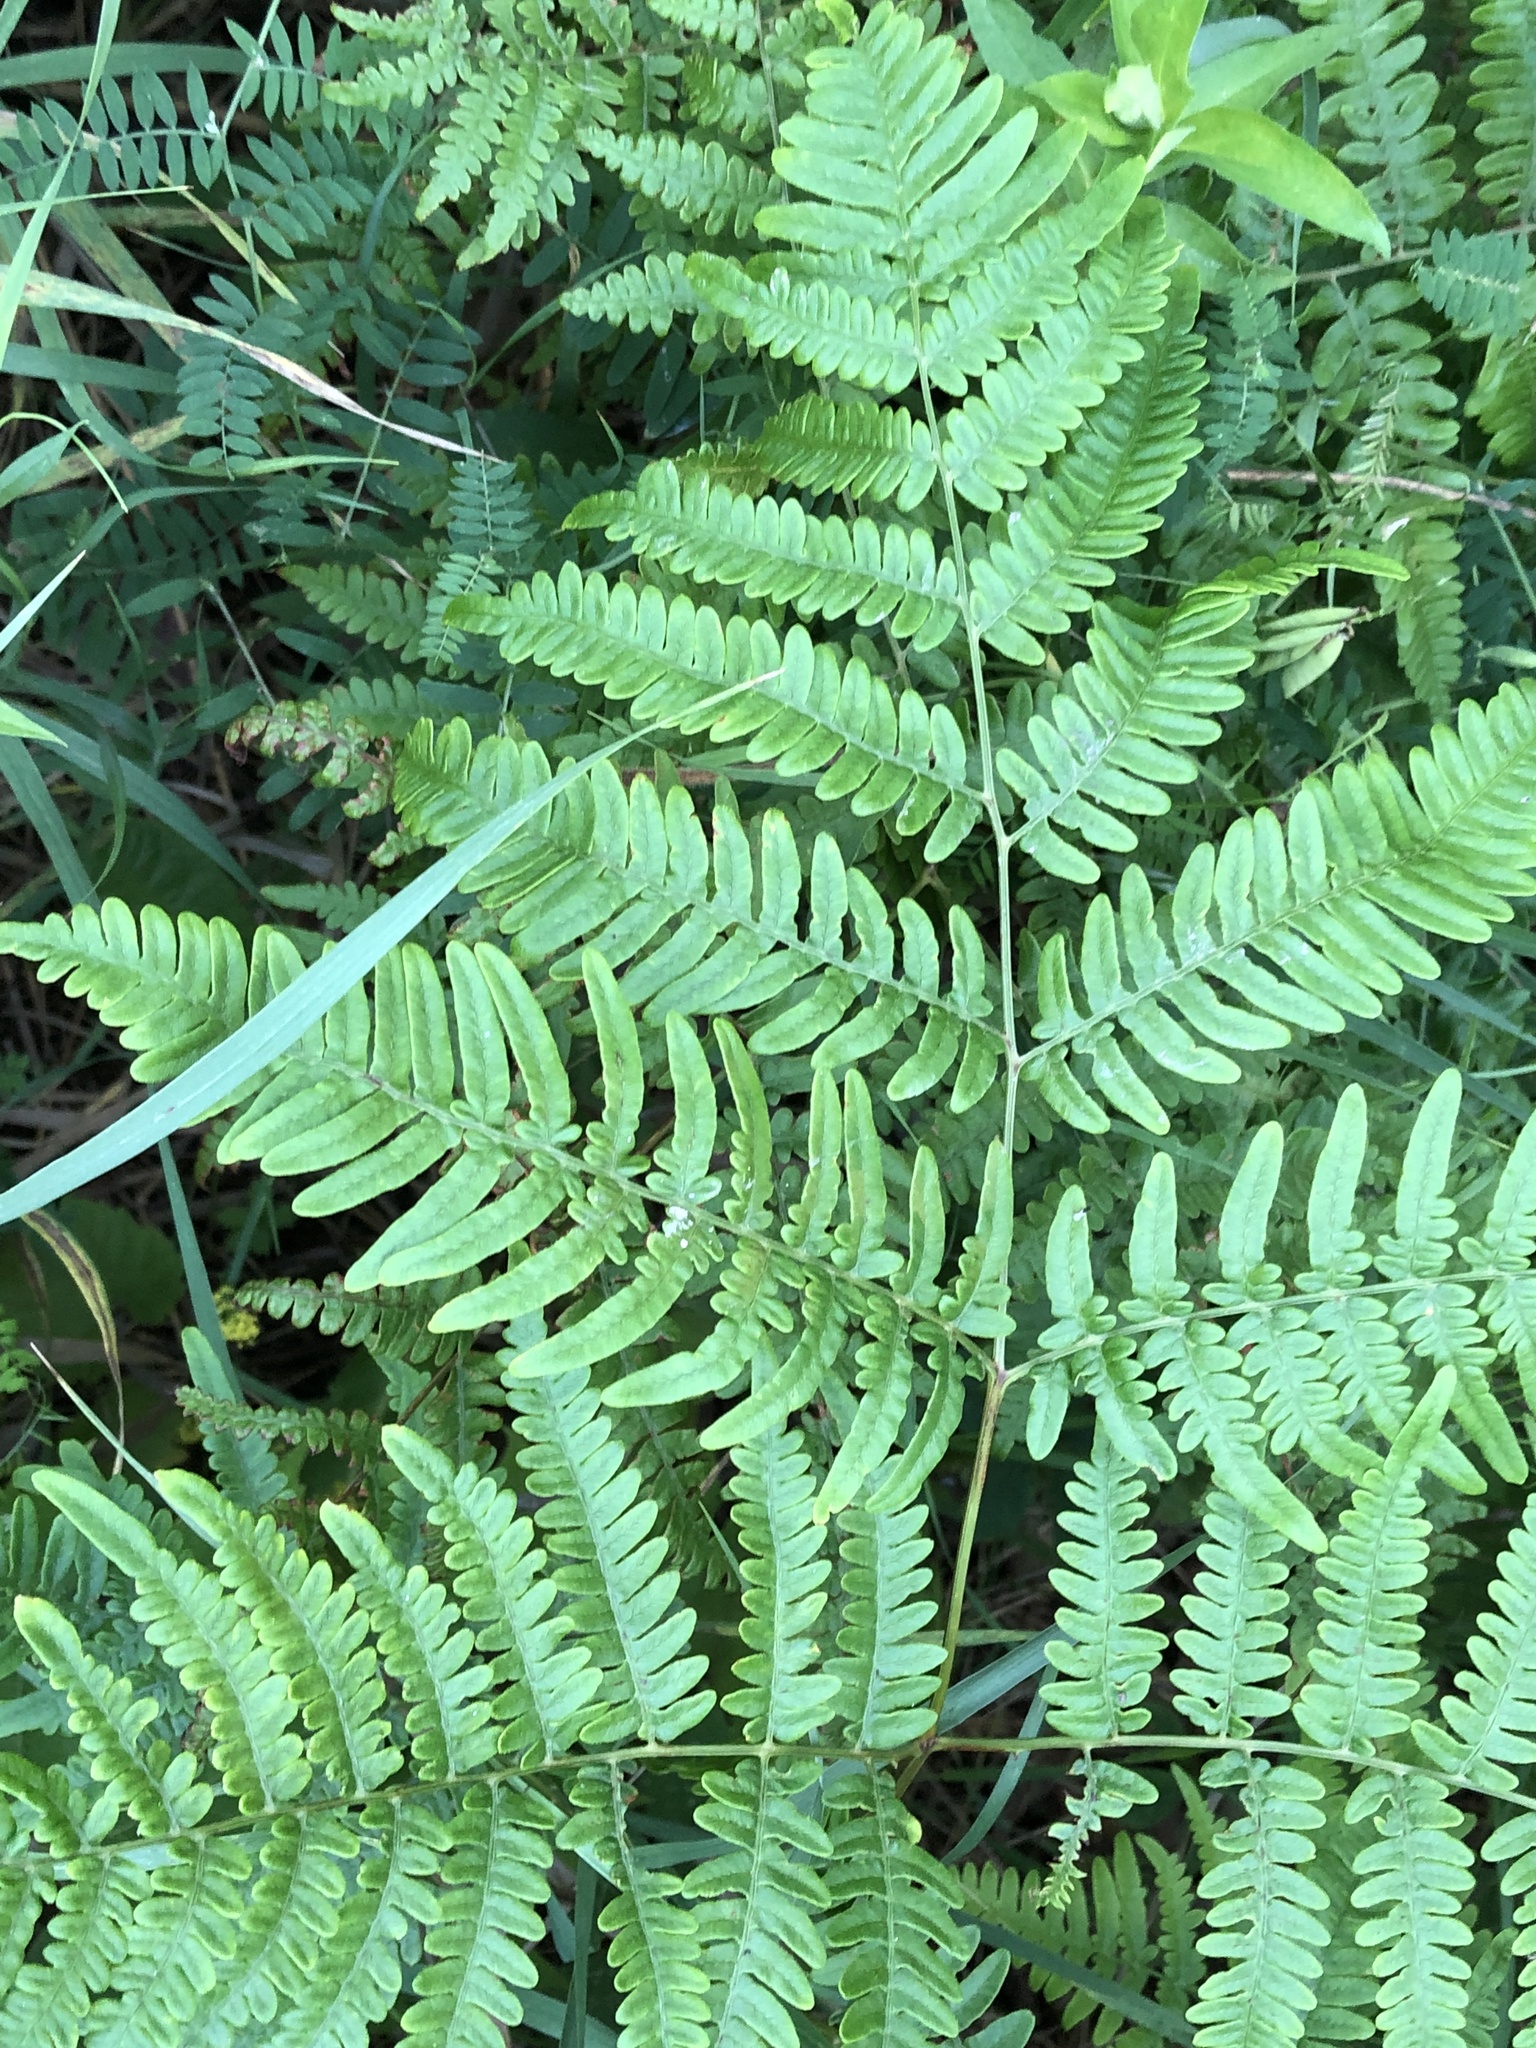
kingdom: Plantae
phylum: Tracheophyta
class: Polypodiopsida
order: Polypodiales
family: Dennstaedtiaceae
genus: Pteridium
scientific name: Pteridium aquilinum
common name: Bracken
